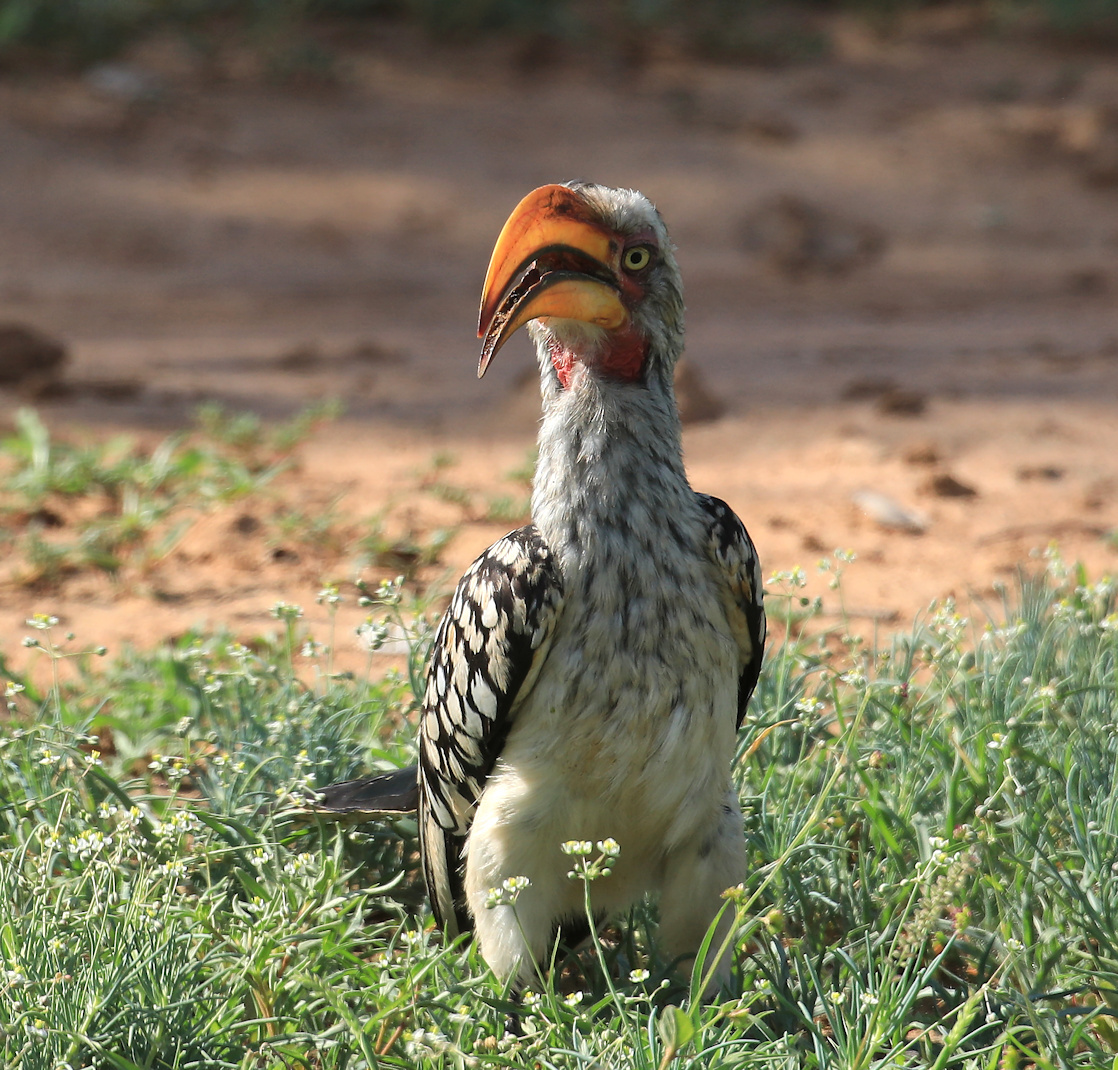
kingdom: Animalia
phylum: Chordata
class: Aves
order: Bucerotiformes
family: Bucerotidae
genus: Tockus
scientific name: Tockus leucomelas
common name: Southern yellow-billed hornbill
